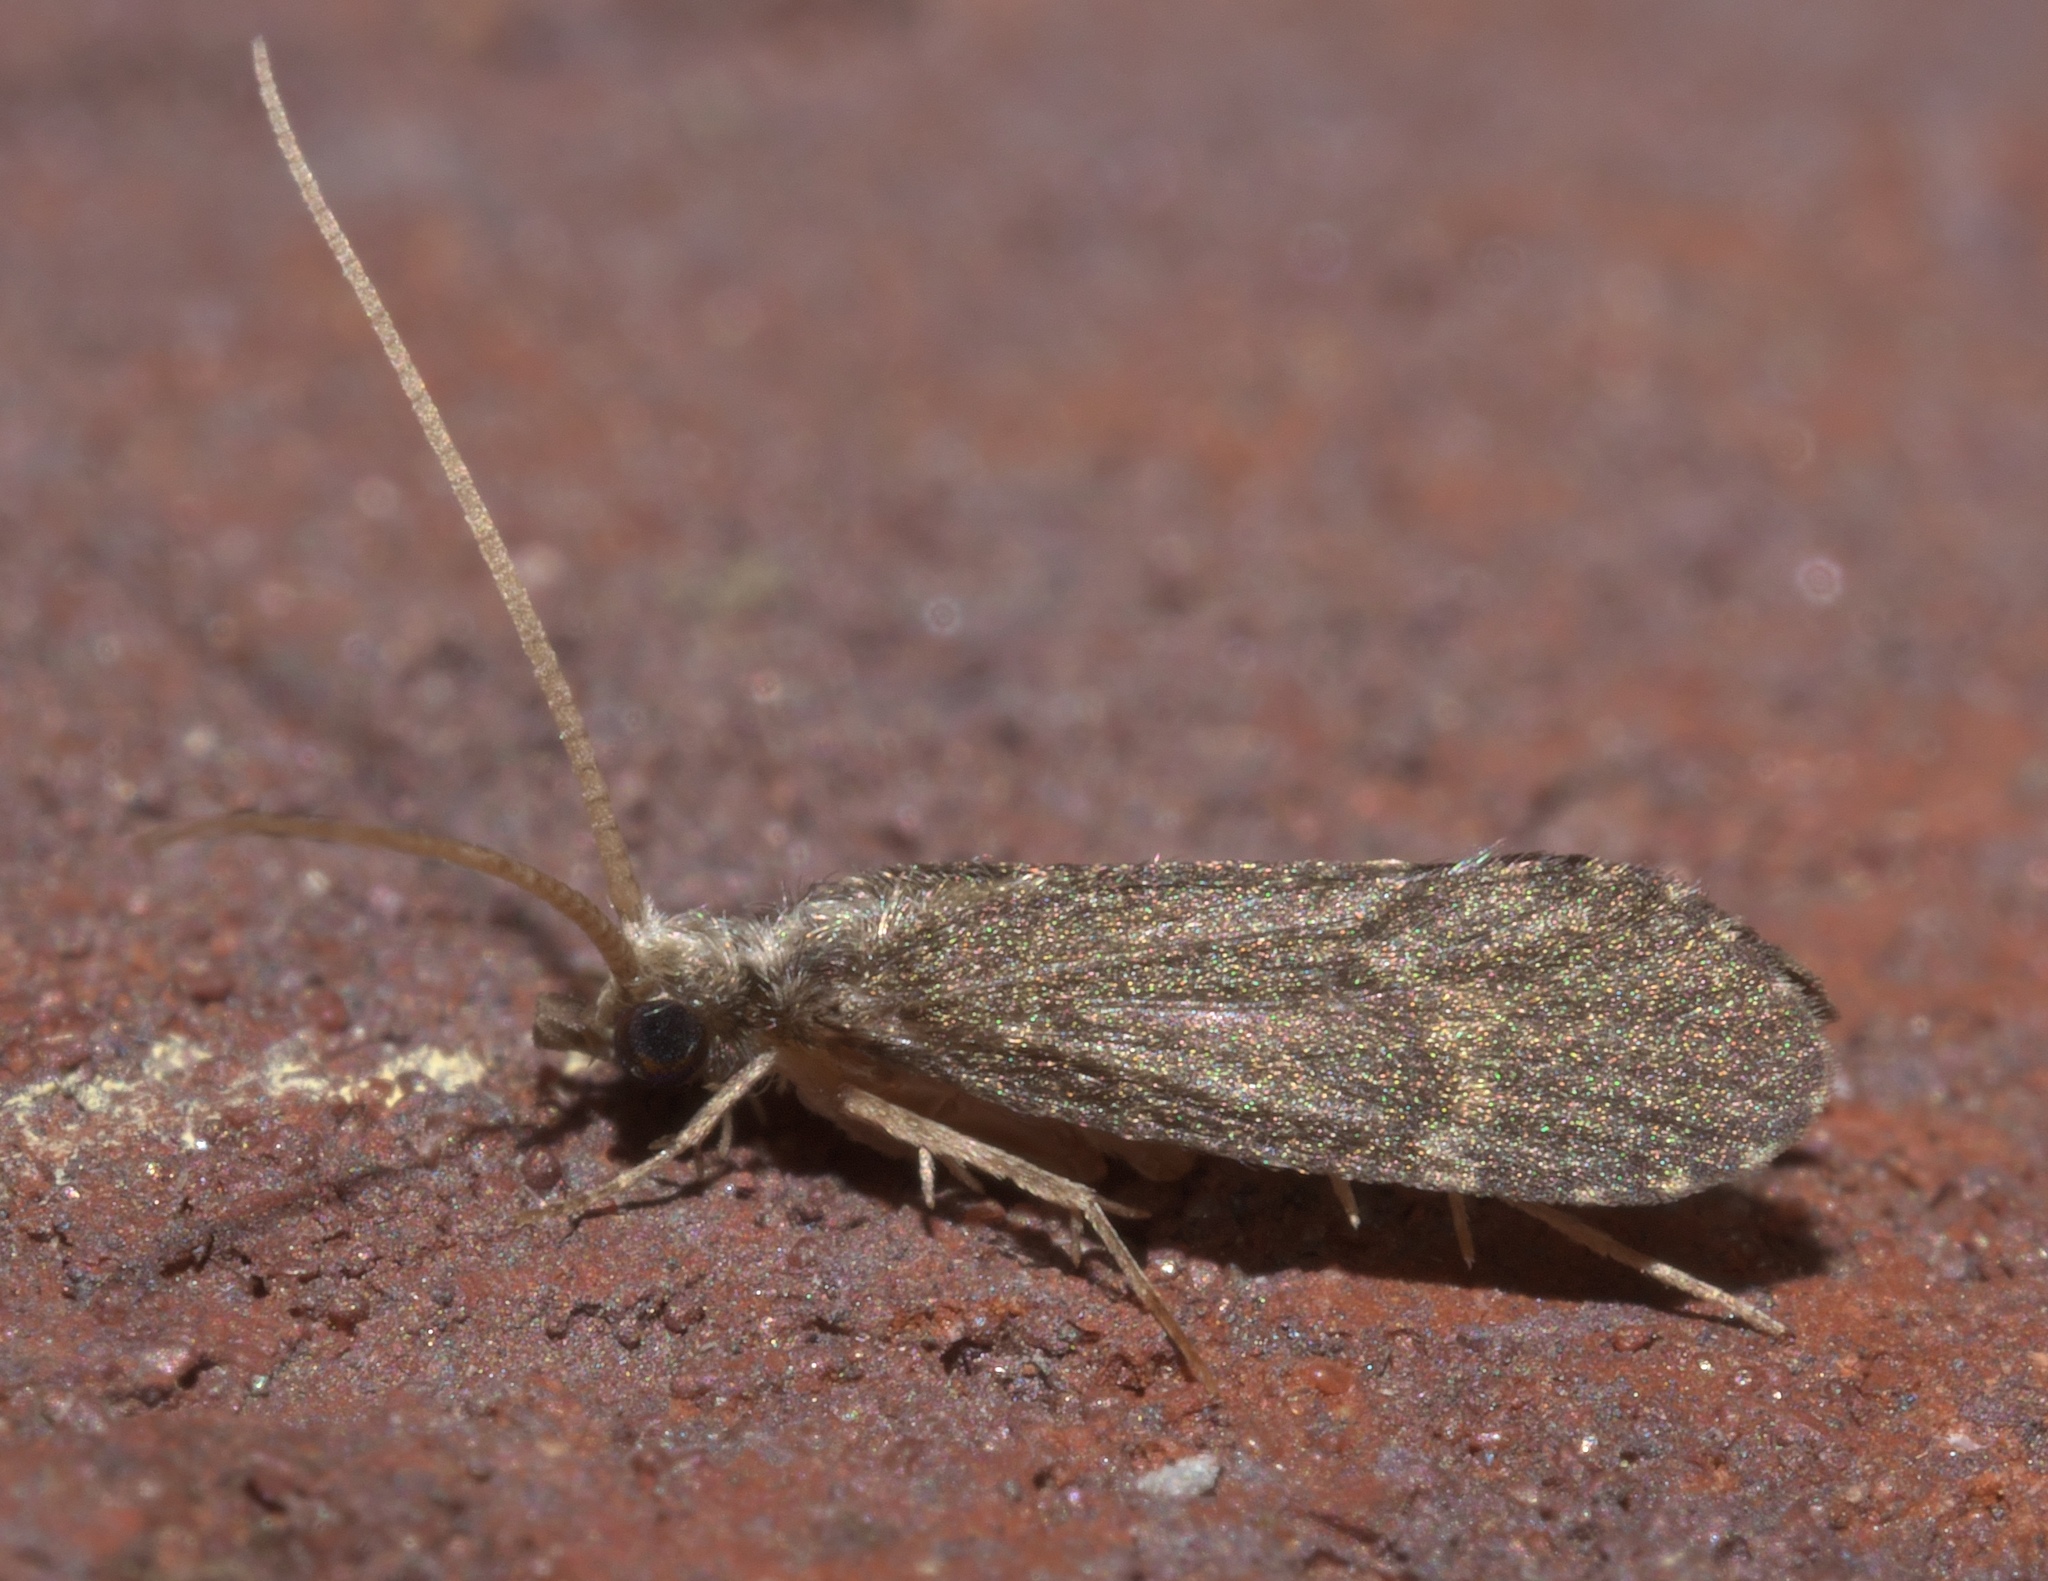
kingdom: Animalia
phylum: Arthropoda
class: Insecta
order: Trichoptera
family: Polycentropodidae
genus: Cyrnellus
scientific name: Cyrnellus fraternus
